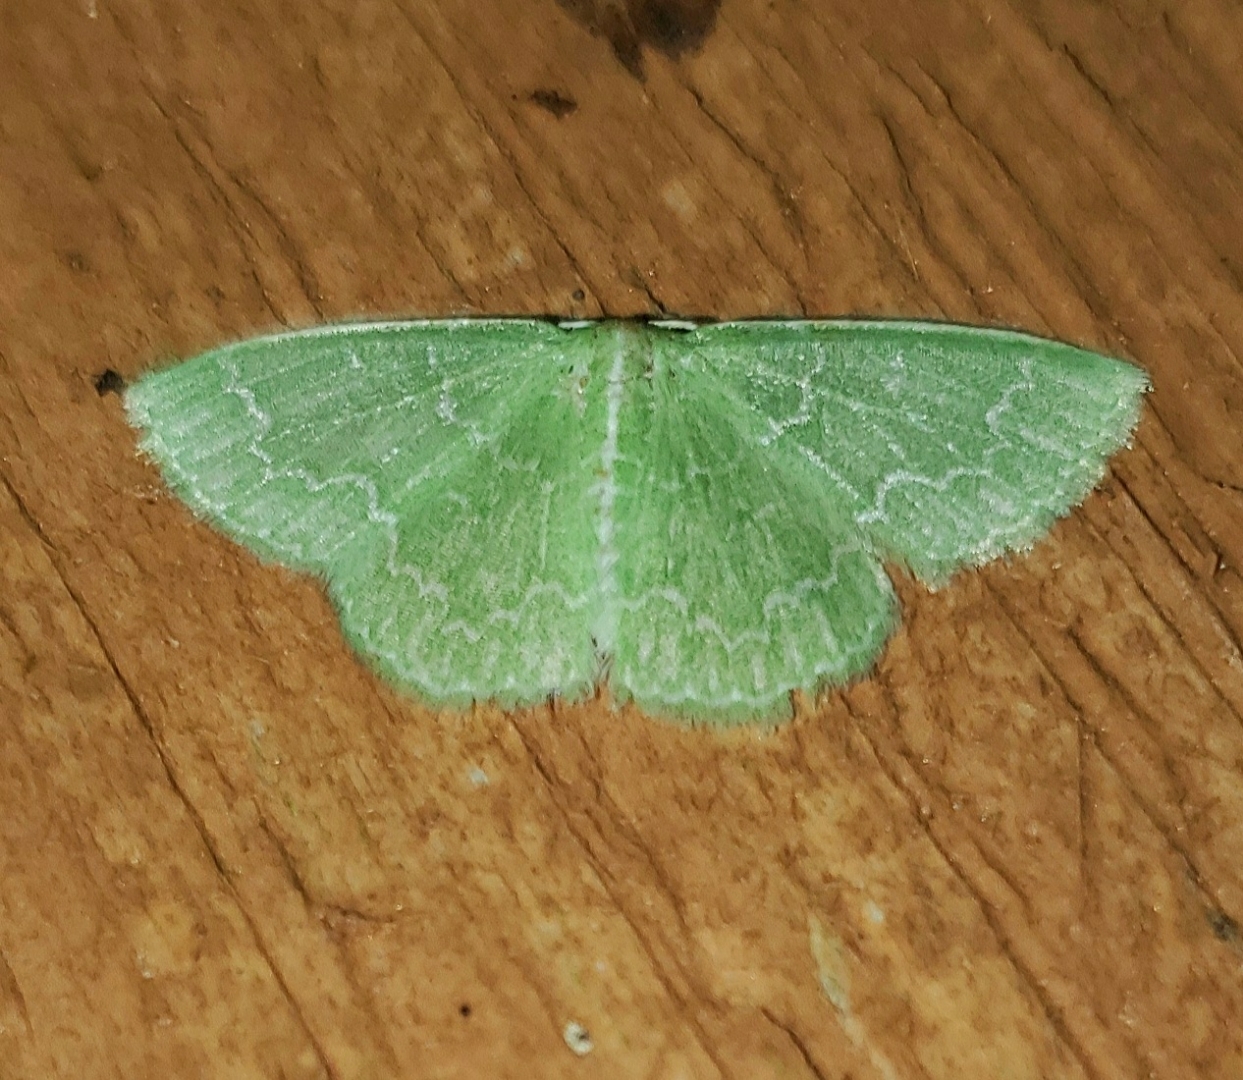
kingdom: Animalia
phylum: Arthropoda
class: Insecta
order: Lepidoptera
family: Geometridae
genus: Synchlora
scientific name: Synchlora frondaria
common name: Southern emerald
